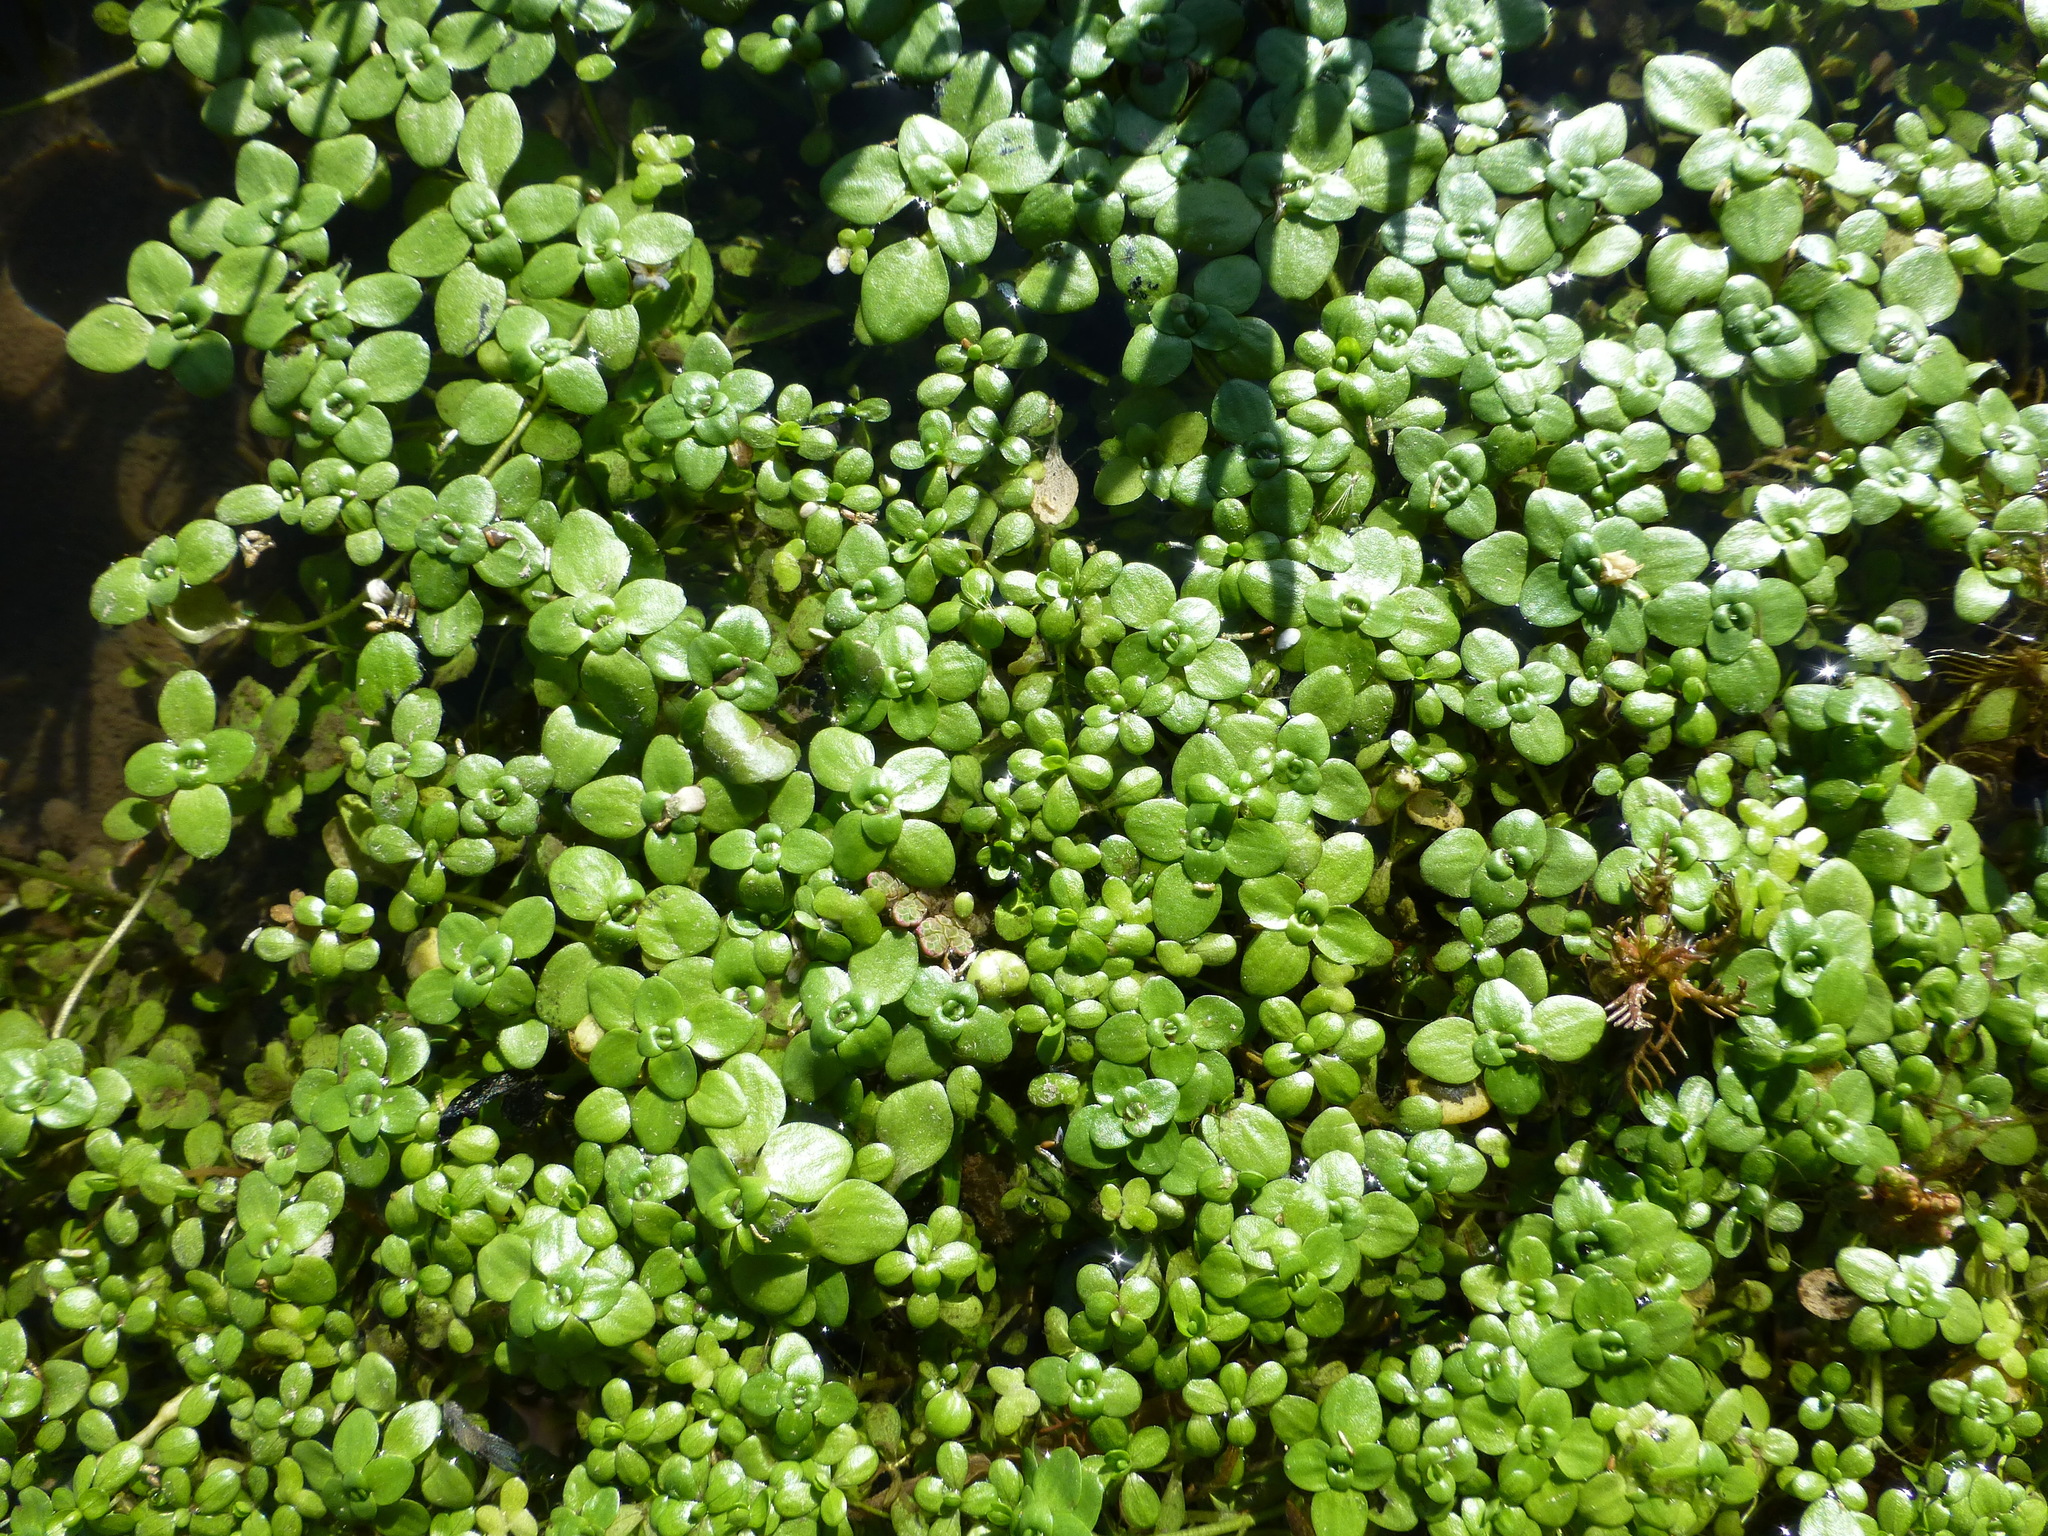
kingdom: Plantae
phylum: Tracheophyta
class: Magnoliopsida
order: Lamiales
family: Plantaginaceae
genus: Callitriche
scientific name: Callitriche stagnalis
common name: Common water-starwort
